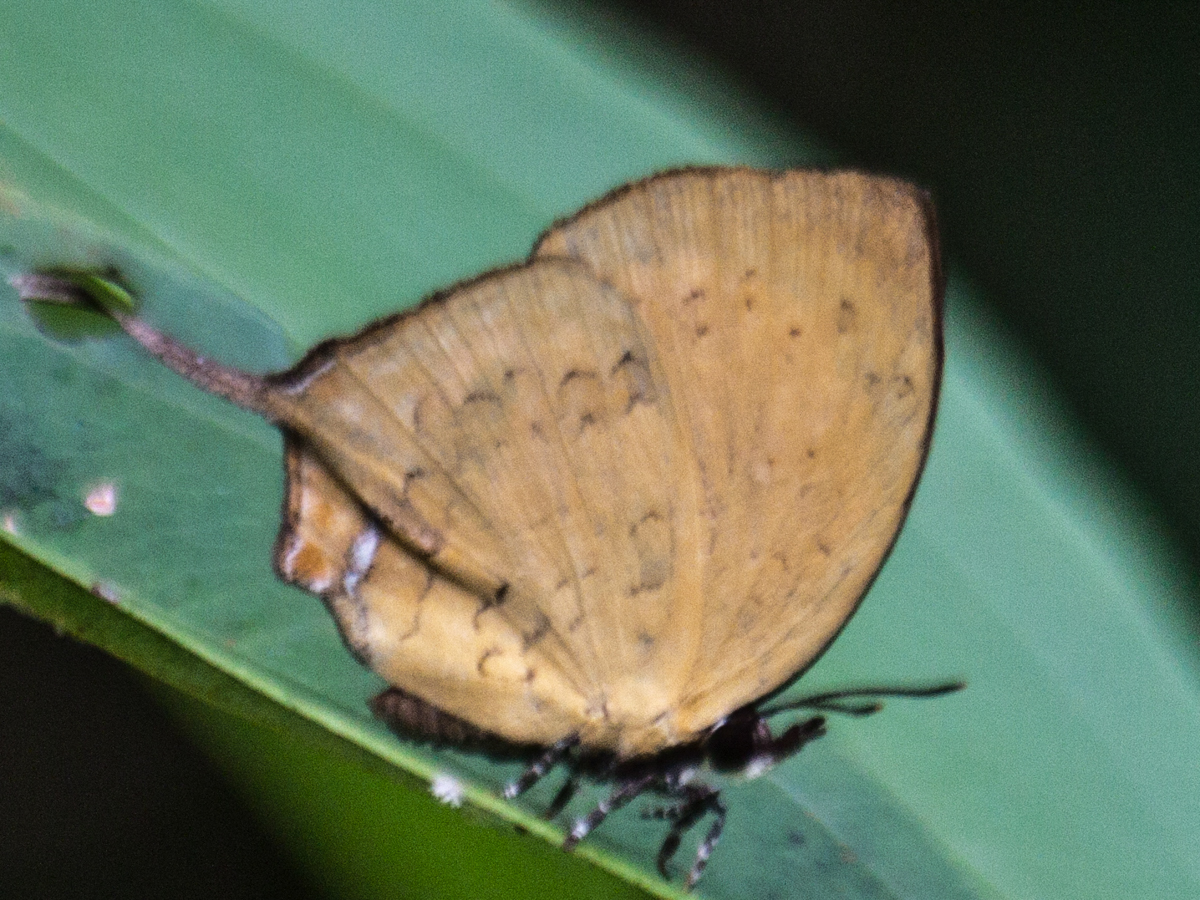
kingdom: Animalia
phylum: Arthropoda
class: Insecta
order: Lepidoptera
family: Lycaenidae
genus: Yasoda
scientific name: Yasoda tripunctata
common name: Branded yamfly
